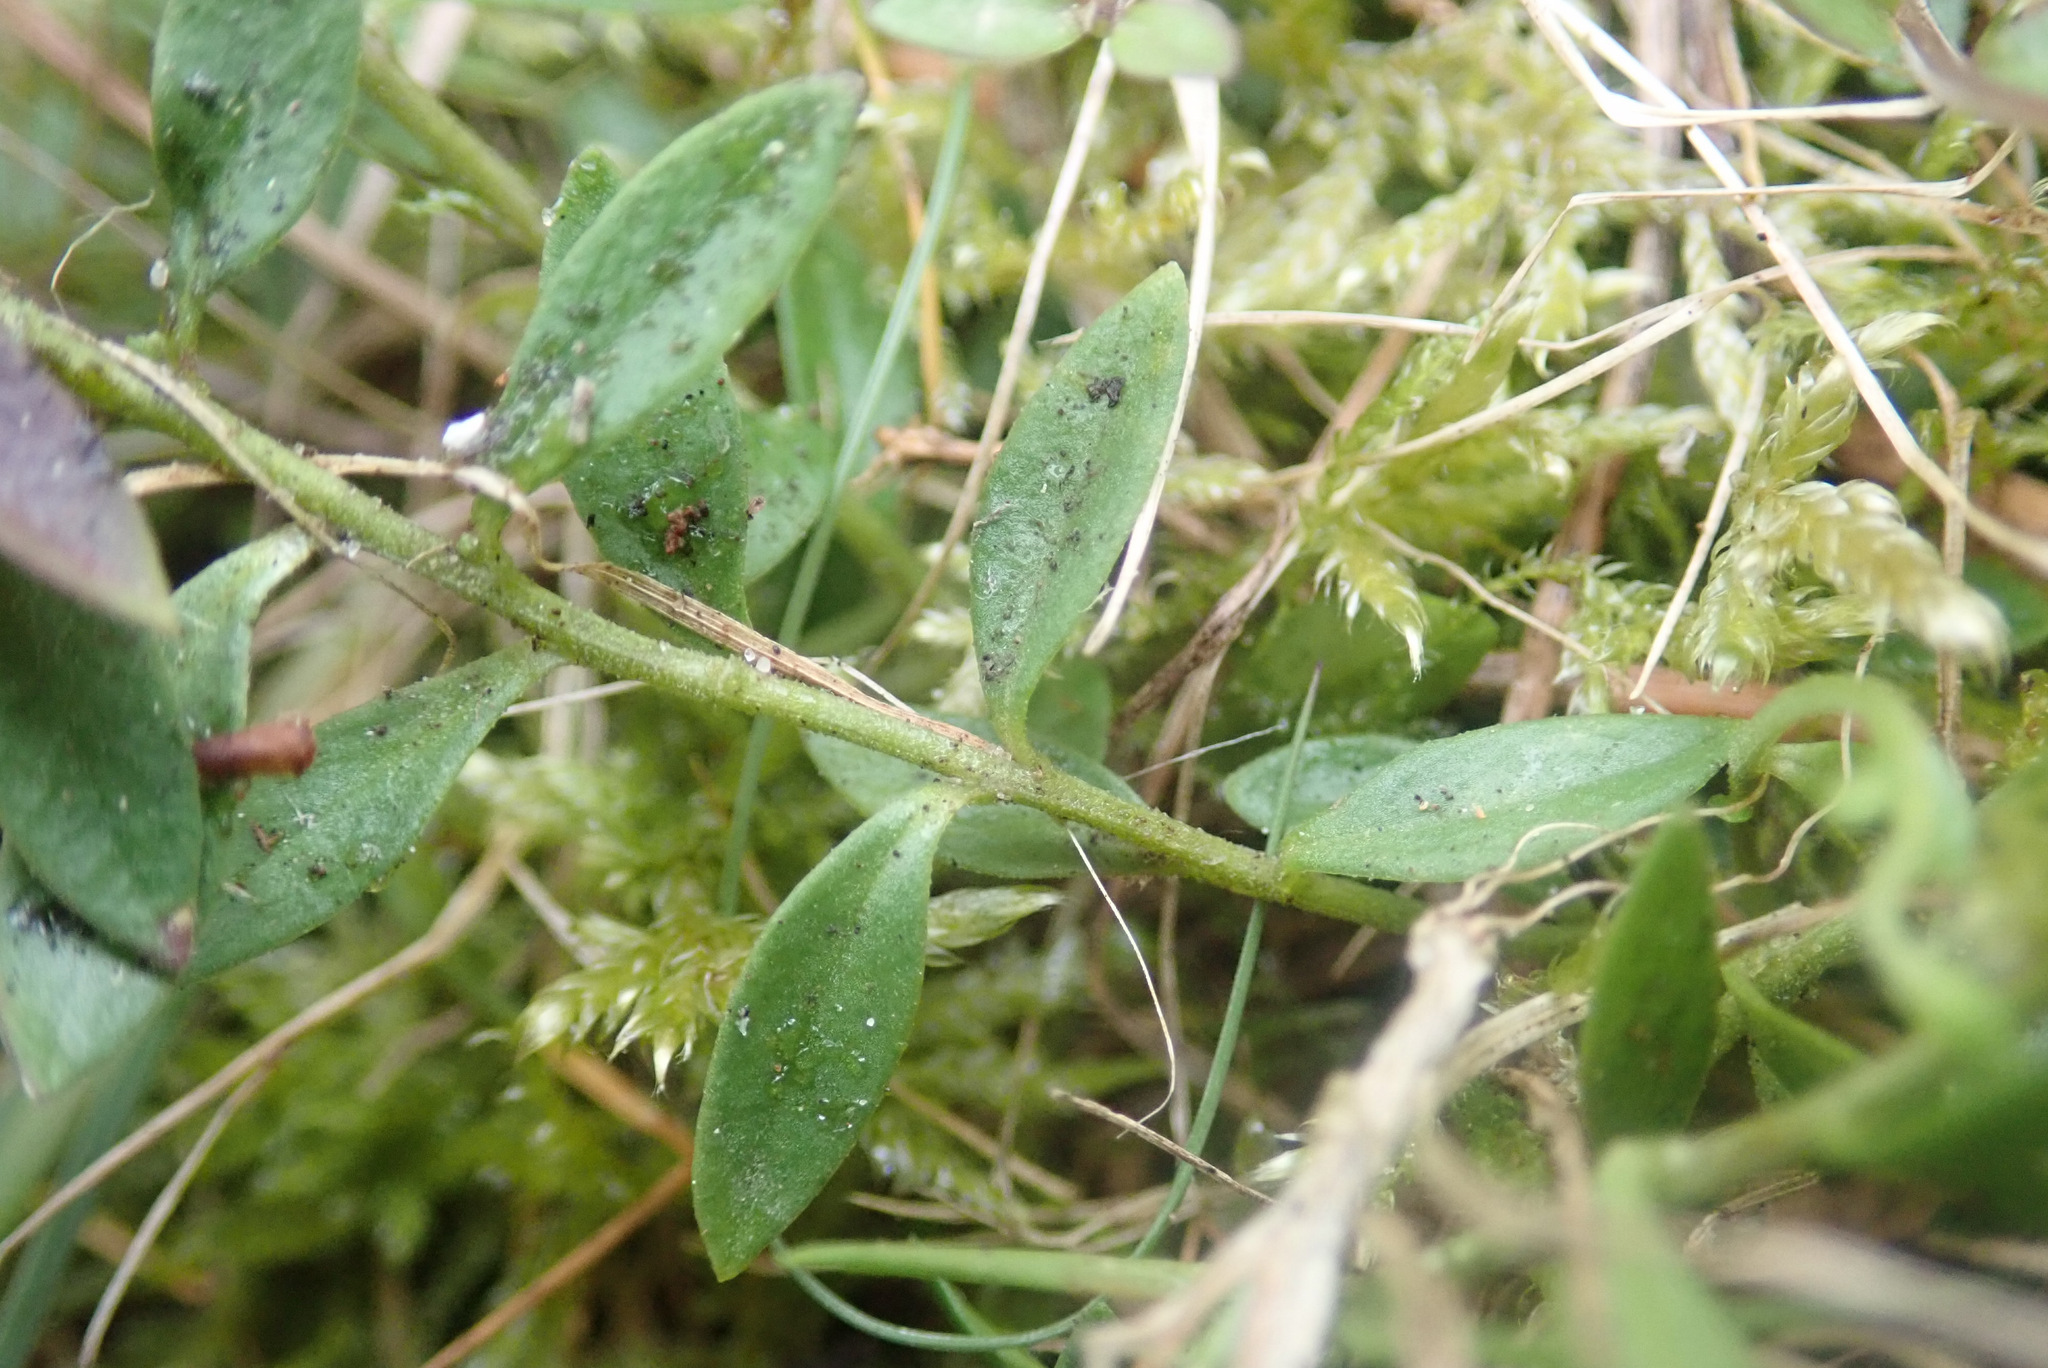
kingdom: Plantae
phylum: Tracheophyta
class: Magnoliopsida
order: Fabales
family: Polygalaceae
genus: Polygala
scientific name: Polygala serpyllifolia
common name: Heath milkwort
